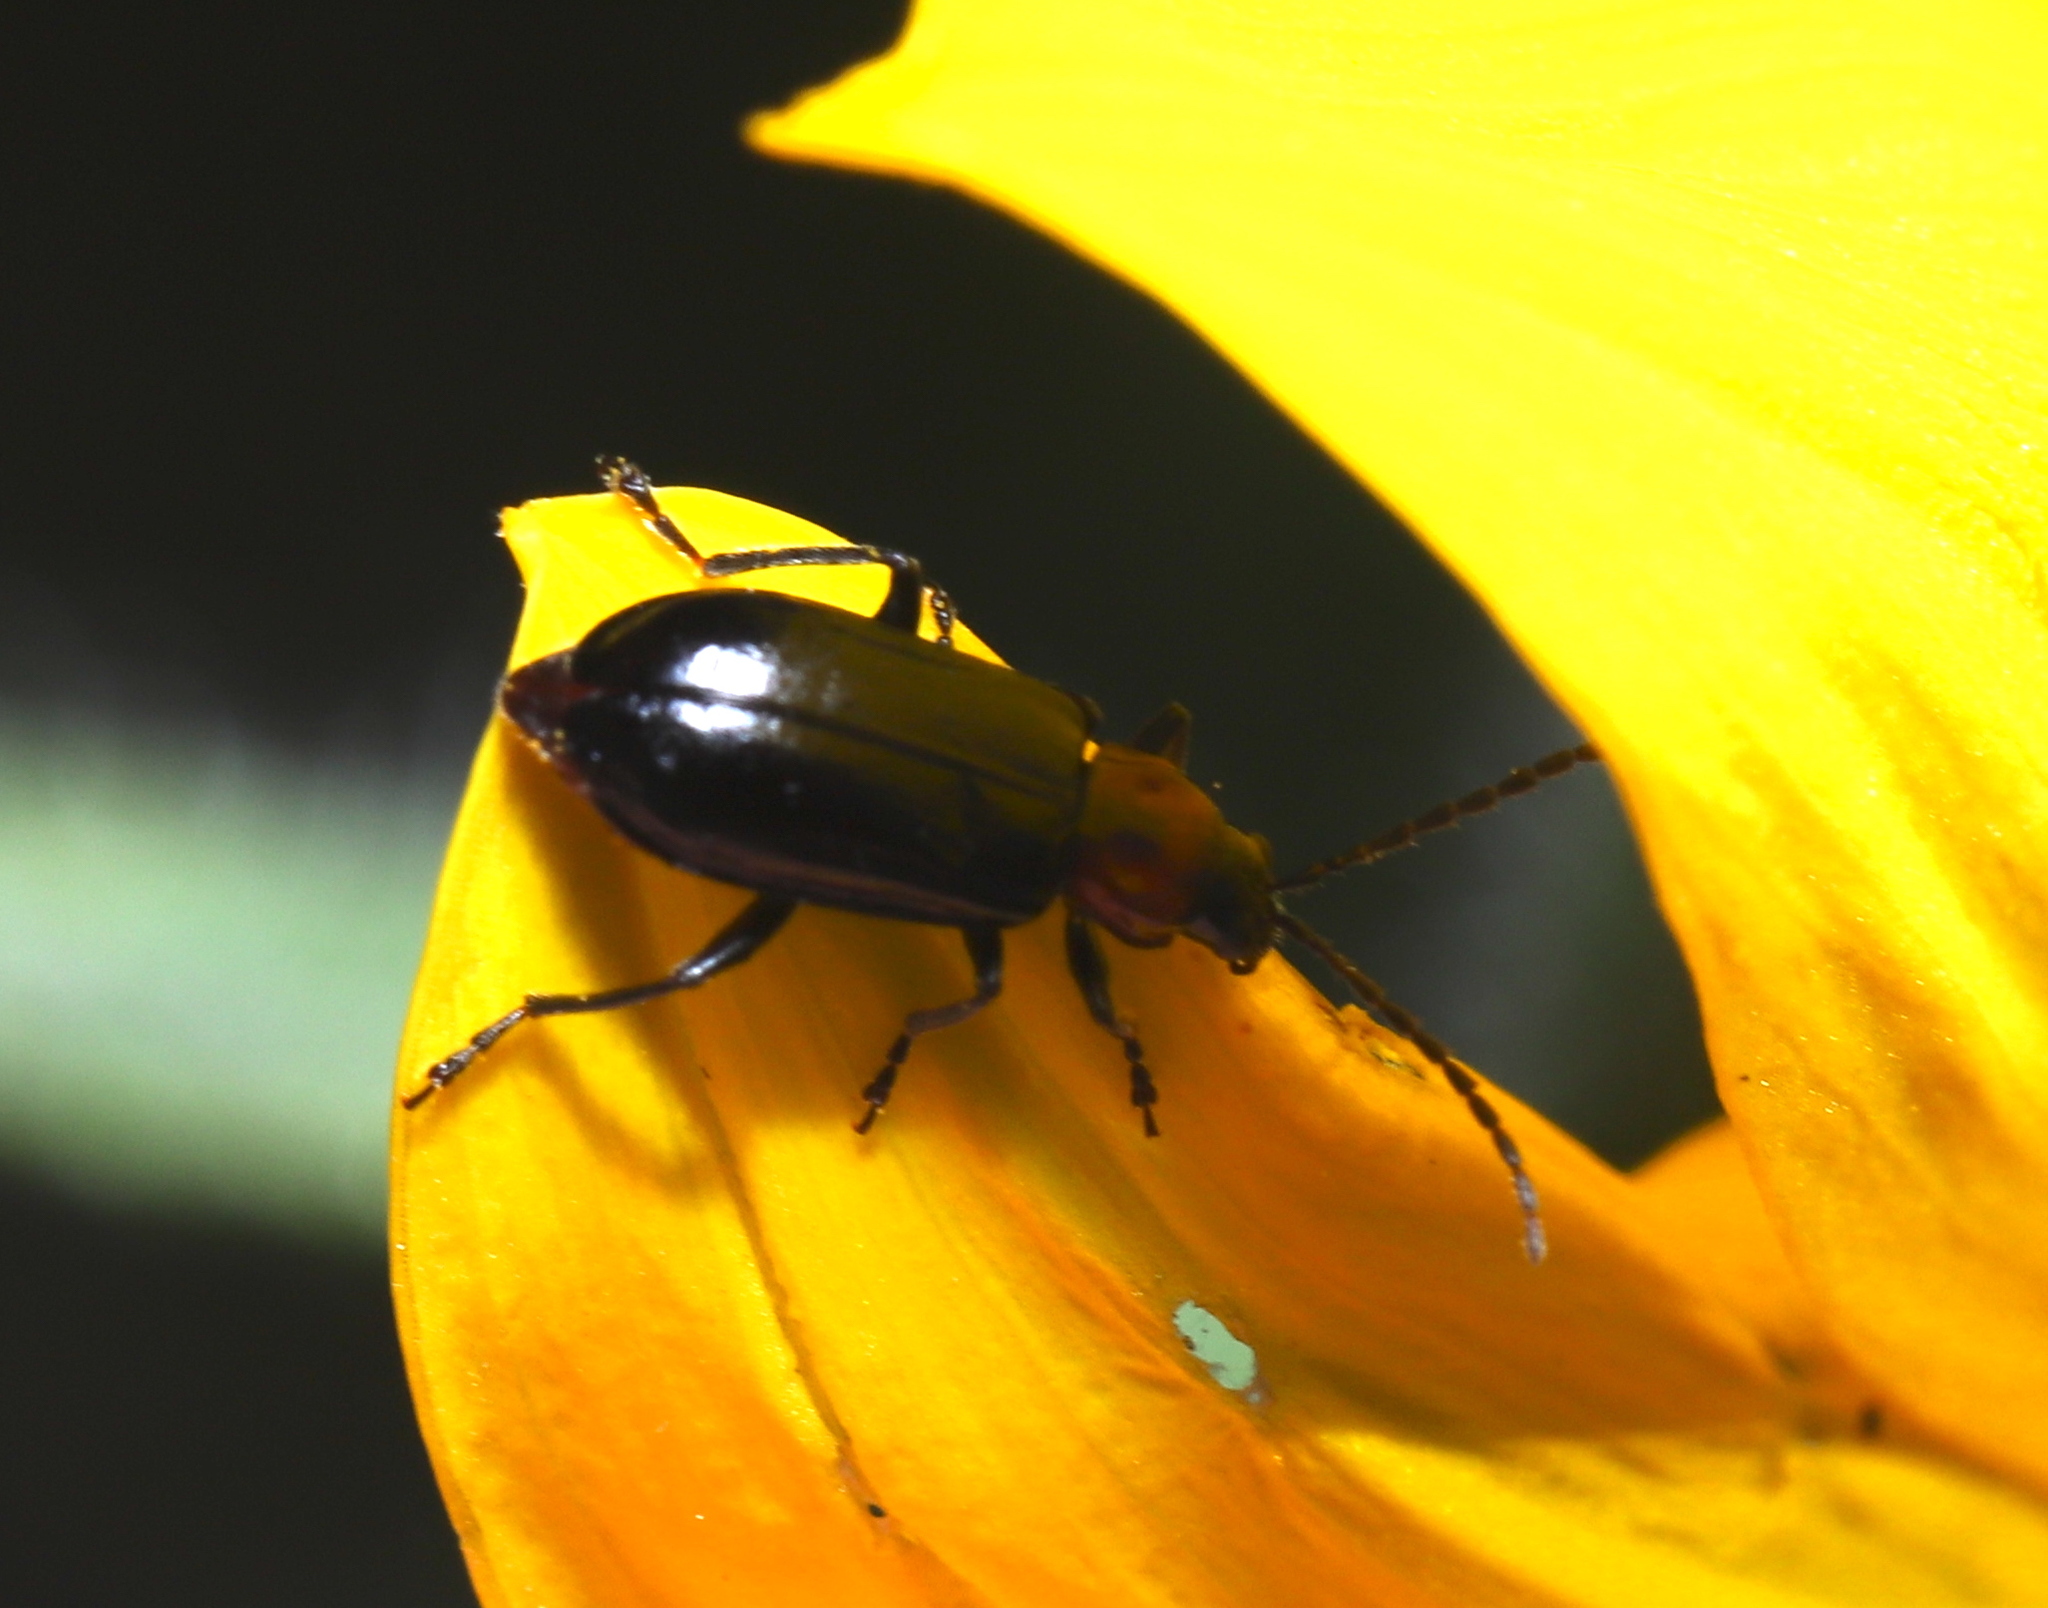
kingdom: Animalia
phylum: Arthropoda
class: Insecta
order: Coleoptera
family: Chrysomelidae
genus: Diabrotica
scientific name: Diabrotica cristata
